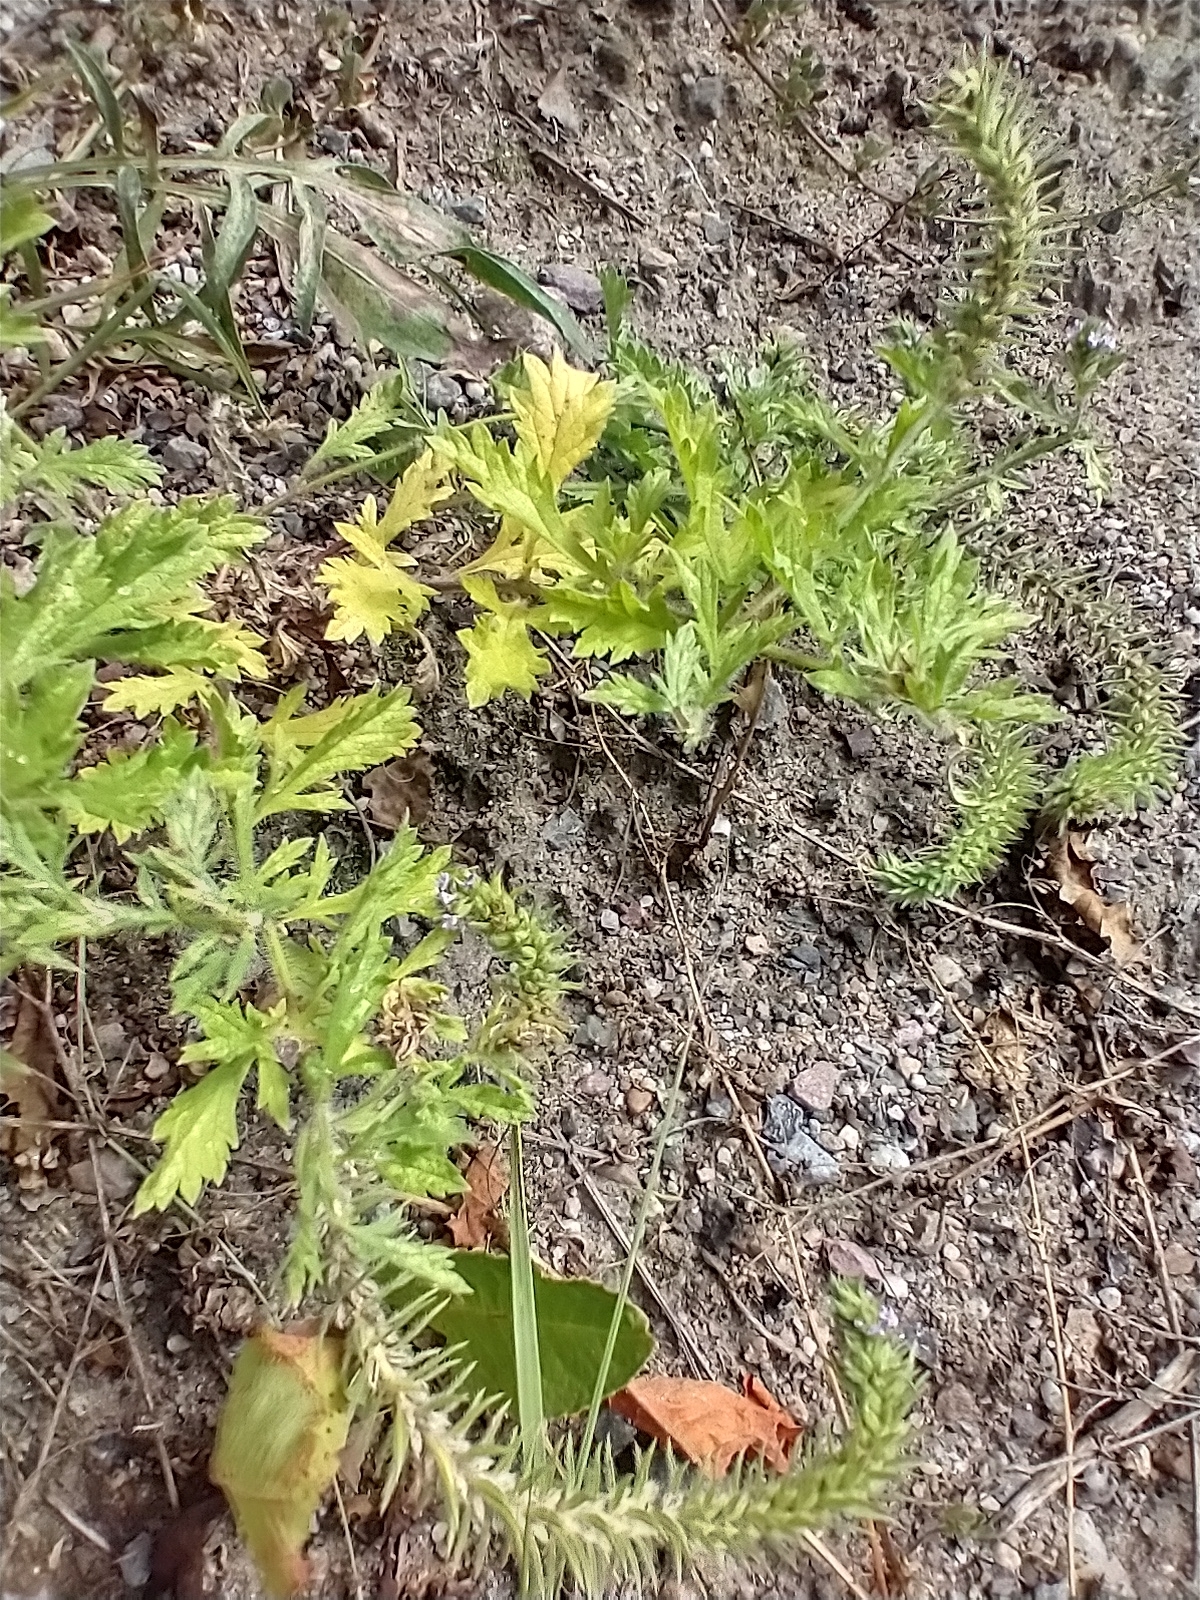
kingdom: Plantae
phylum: Tracheophyta
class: Magnoliopsida
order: Lamiales
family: Verbenaceae
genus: Verbena
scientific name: Verbena bracteata
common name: Bracted vervain
